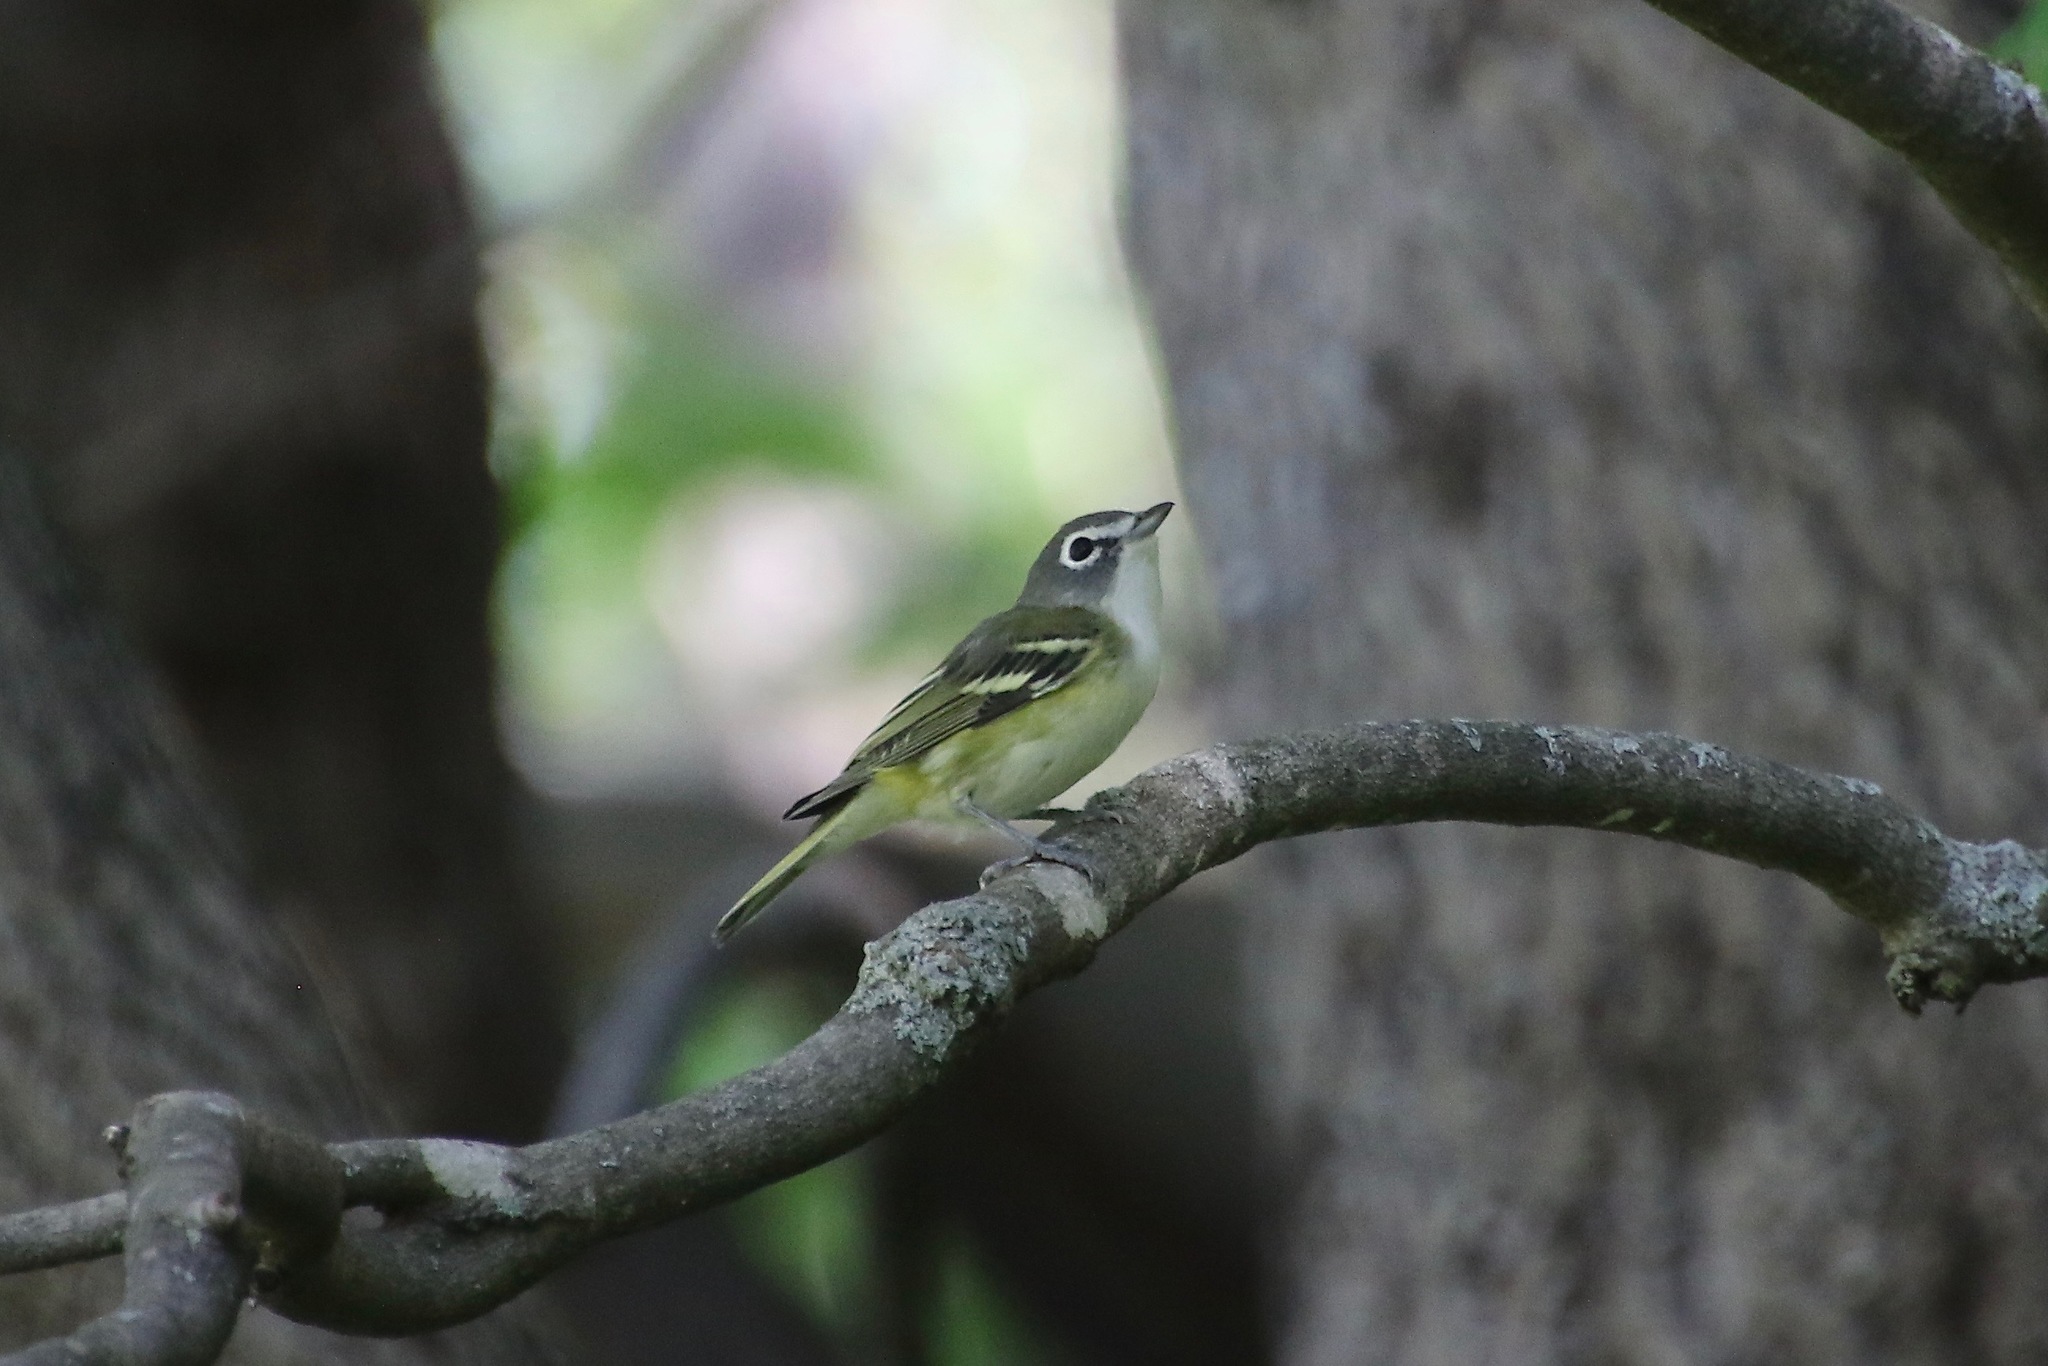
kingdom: Animalia
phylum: Chordata
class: Aves
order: Passeriformes
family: Vireonidae
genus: Vireo
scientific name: Vireo solitarius
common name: Blue-headed vireo
